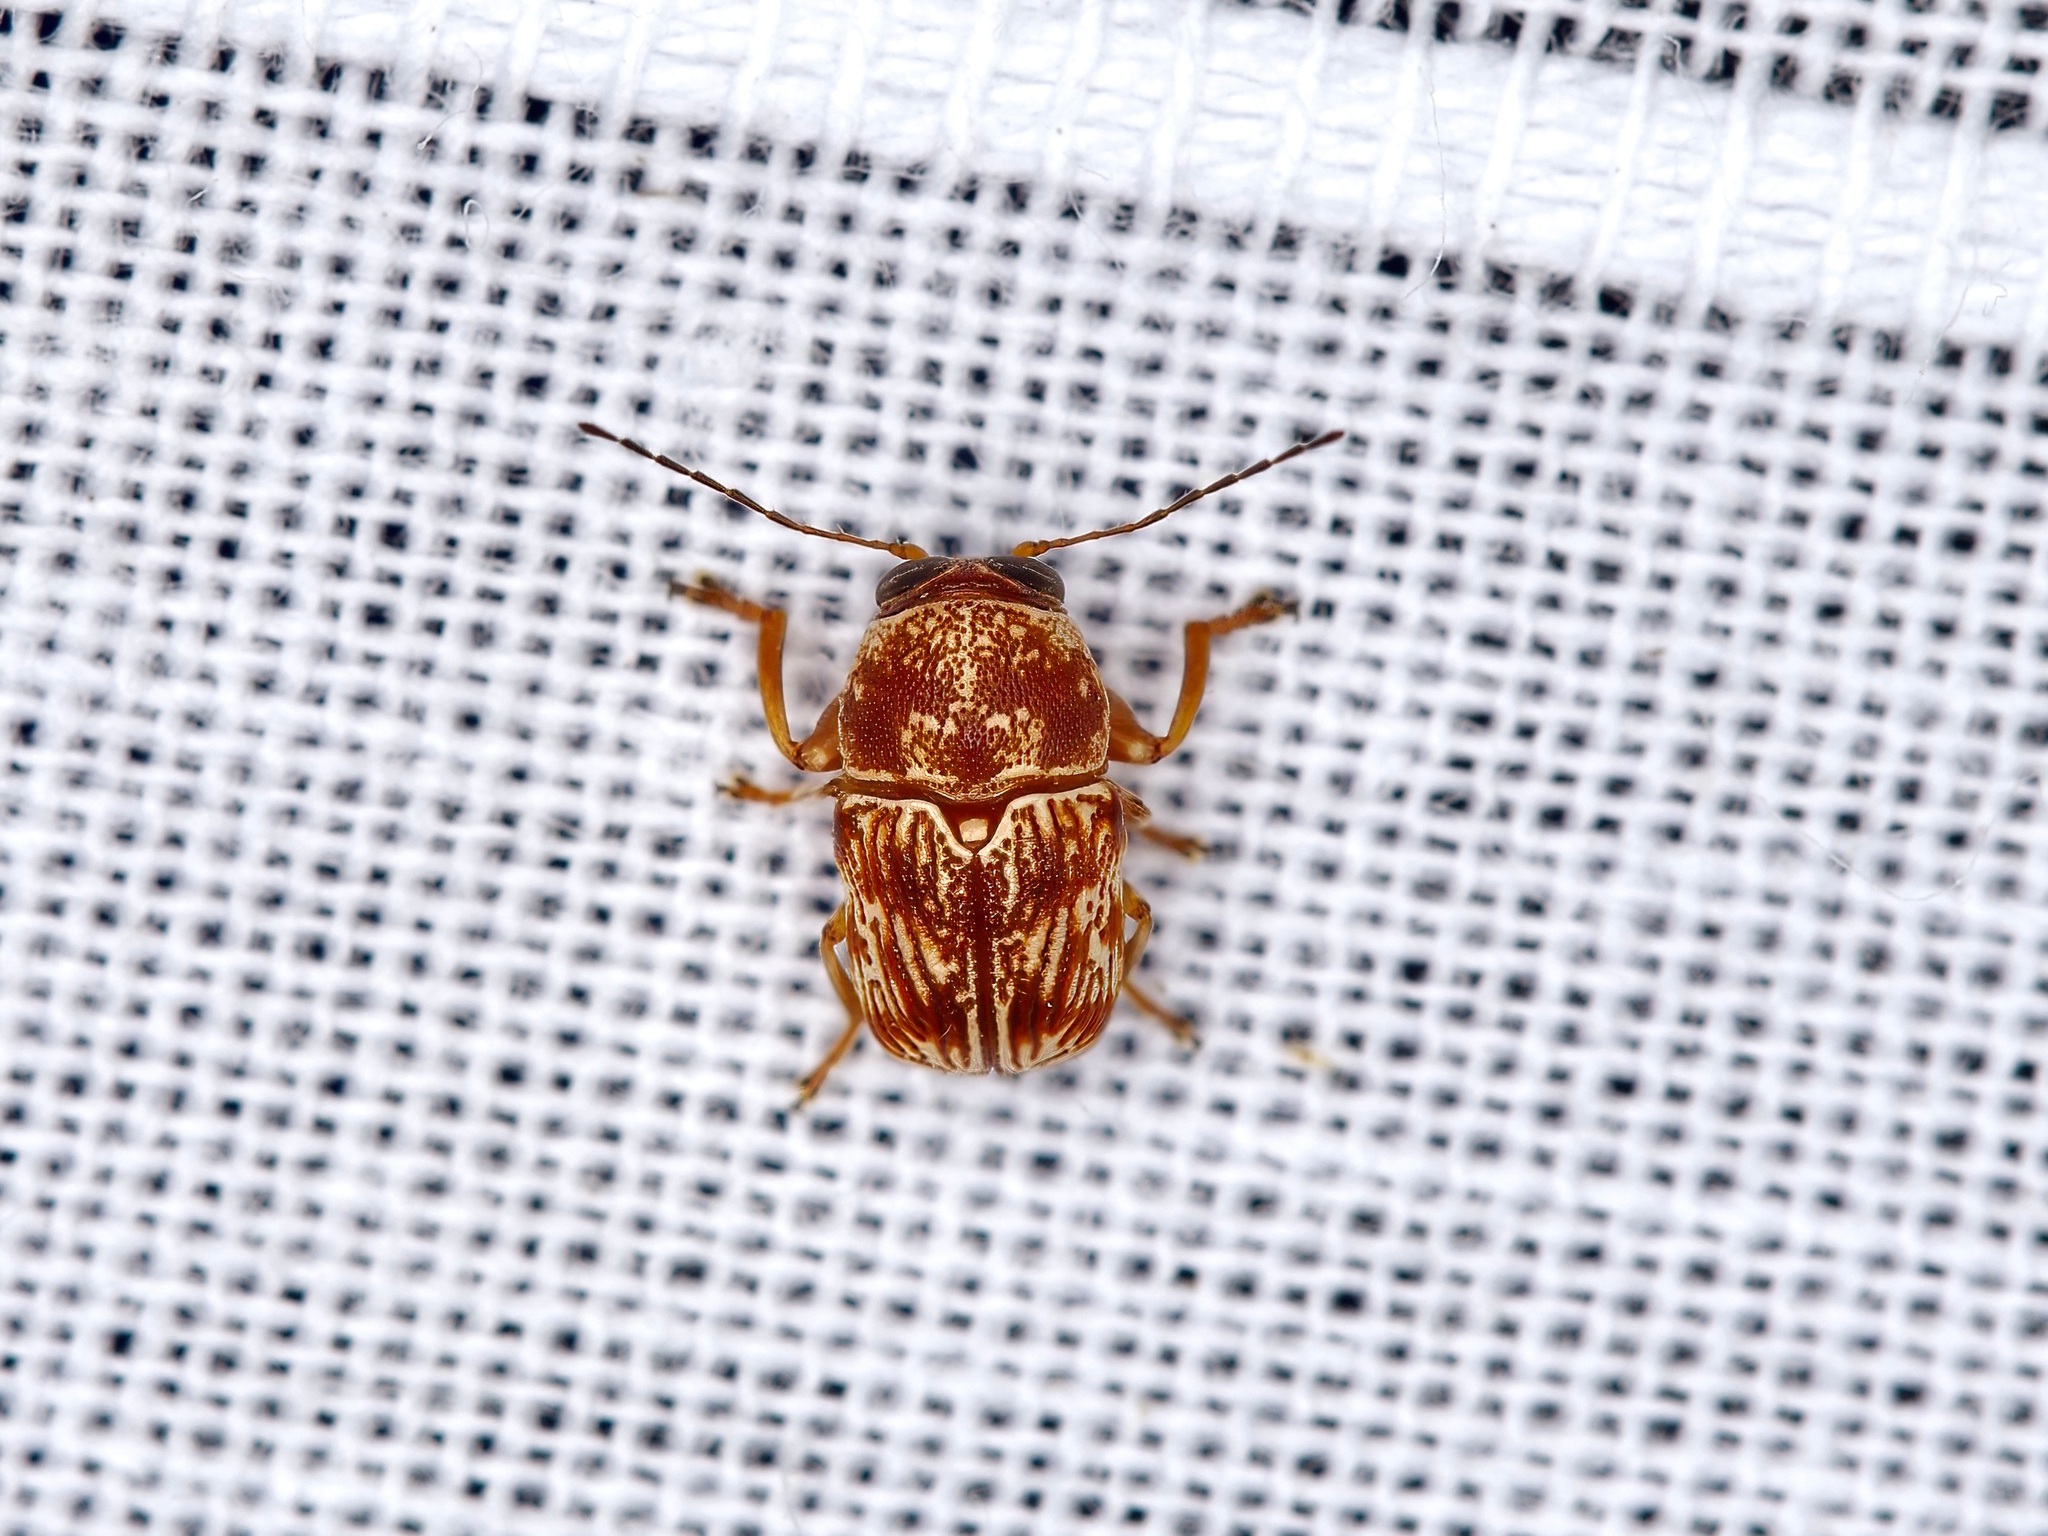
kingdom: Animalia
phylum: Arthropoda
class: Insecta
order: Coleoptera
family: Chrysomelidae
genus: Pachybrachis
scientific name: Pachybrachis
